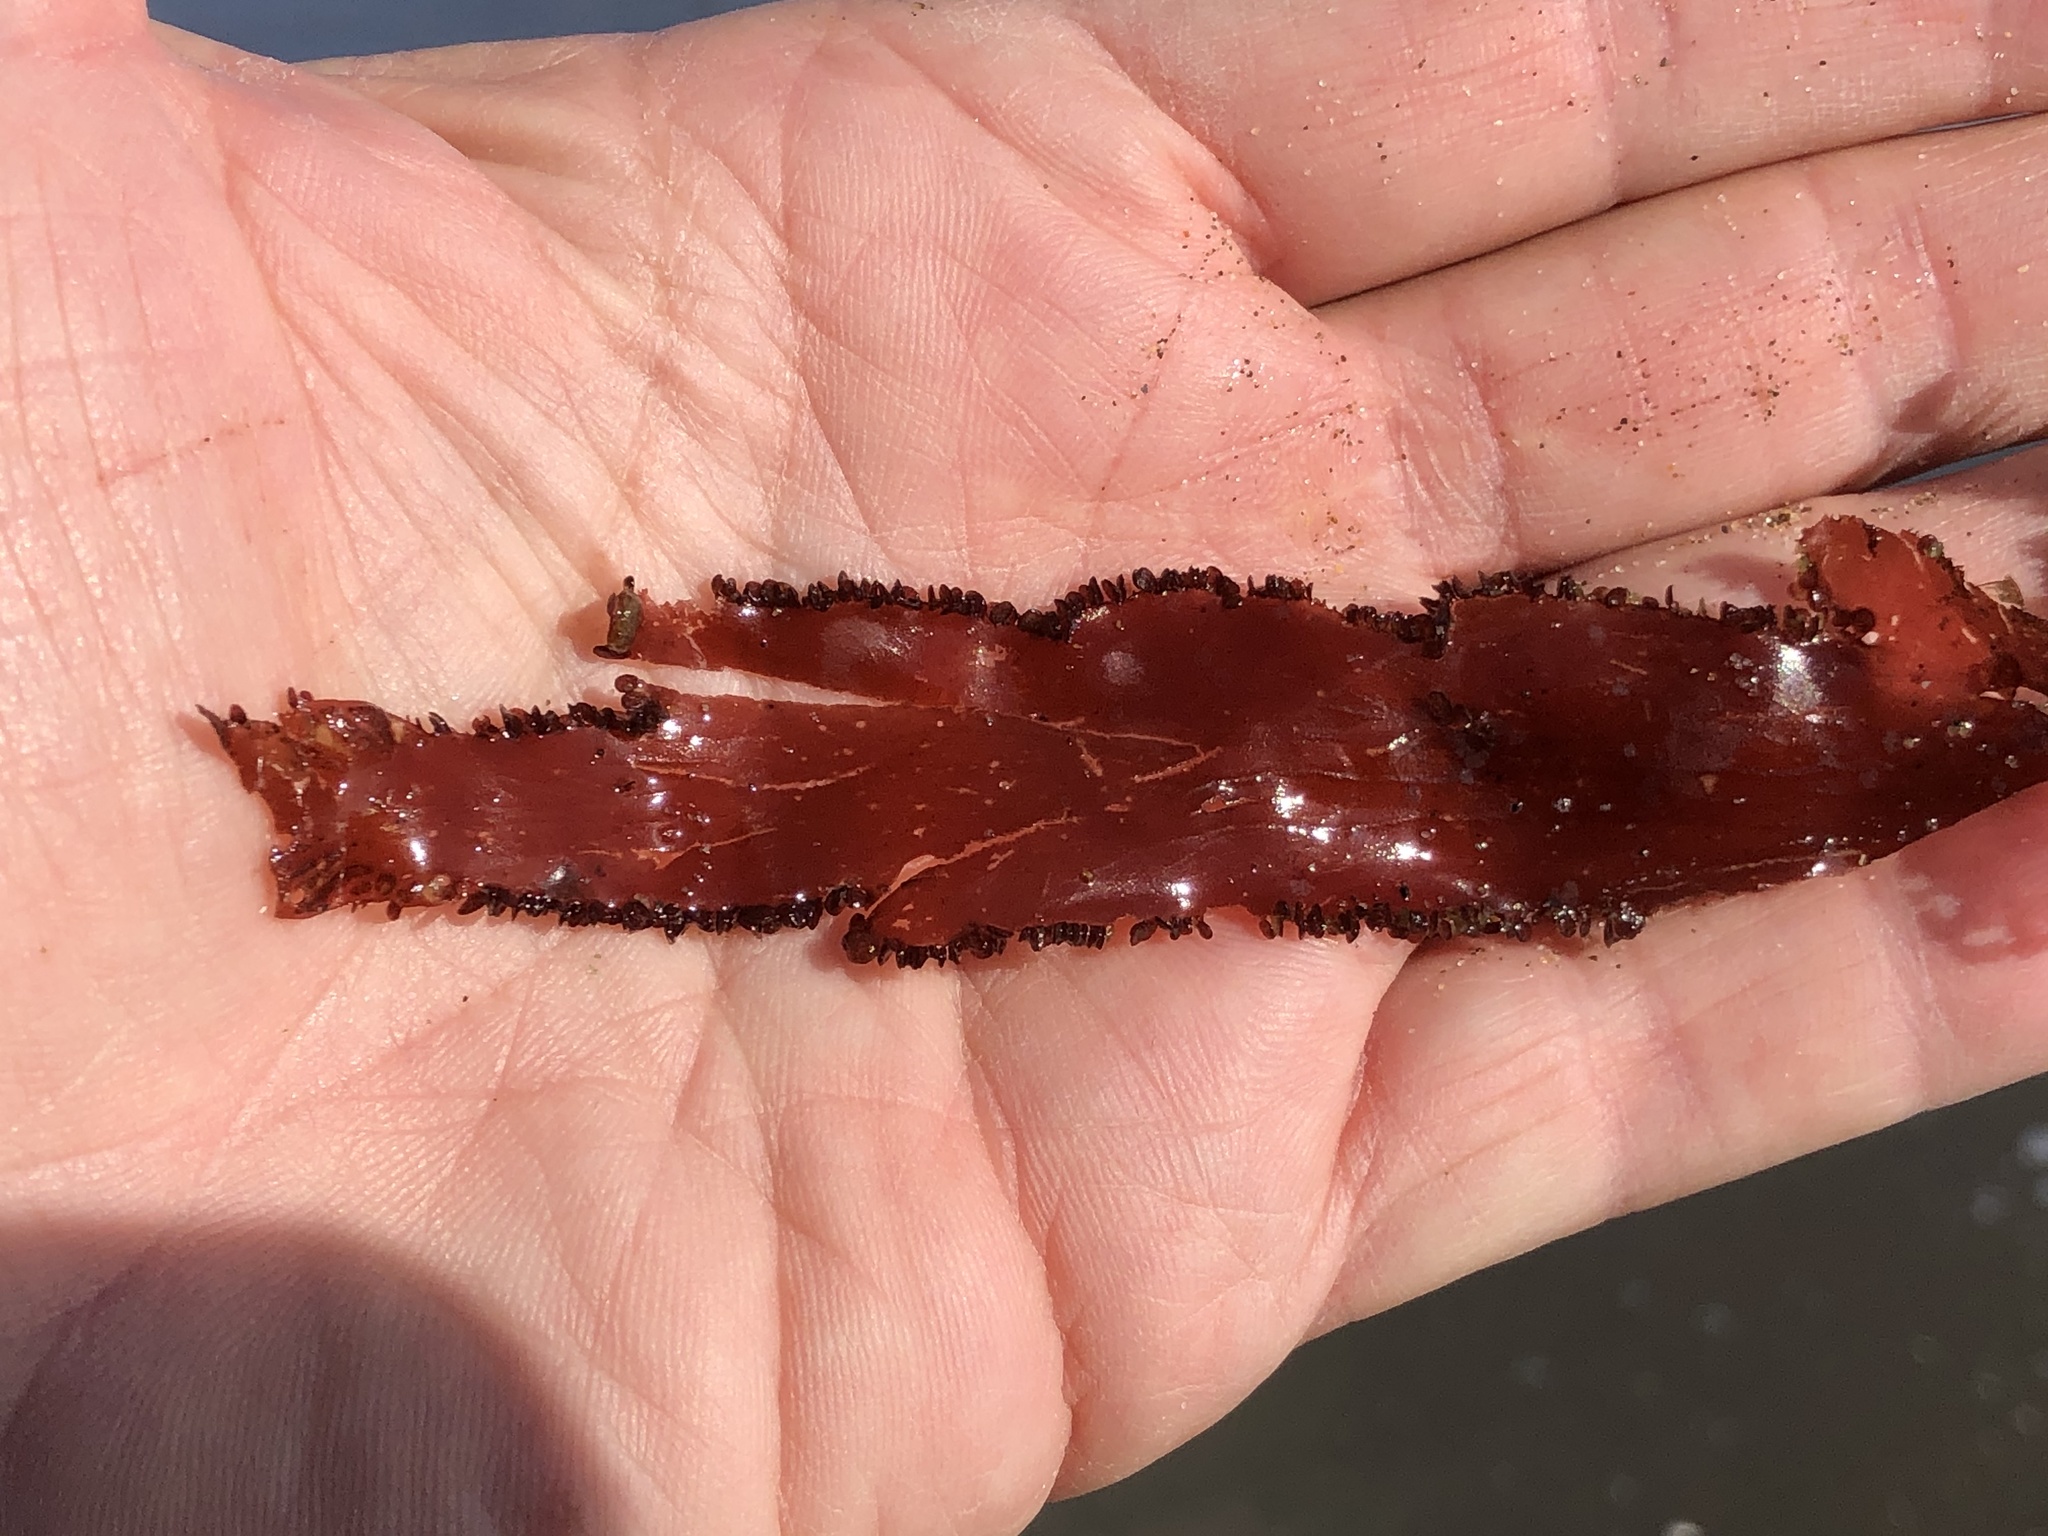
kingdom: Plantae
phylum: Rhodophyta
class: Florideophyceae
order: Ceramiales
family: Delesseriaceae
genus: Cryptopleura
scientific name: Cryptopleura ruprechtiana
